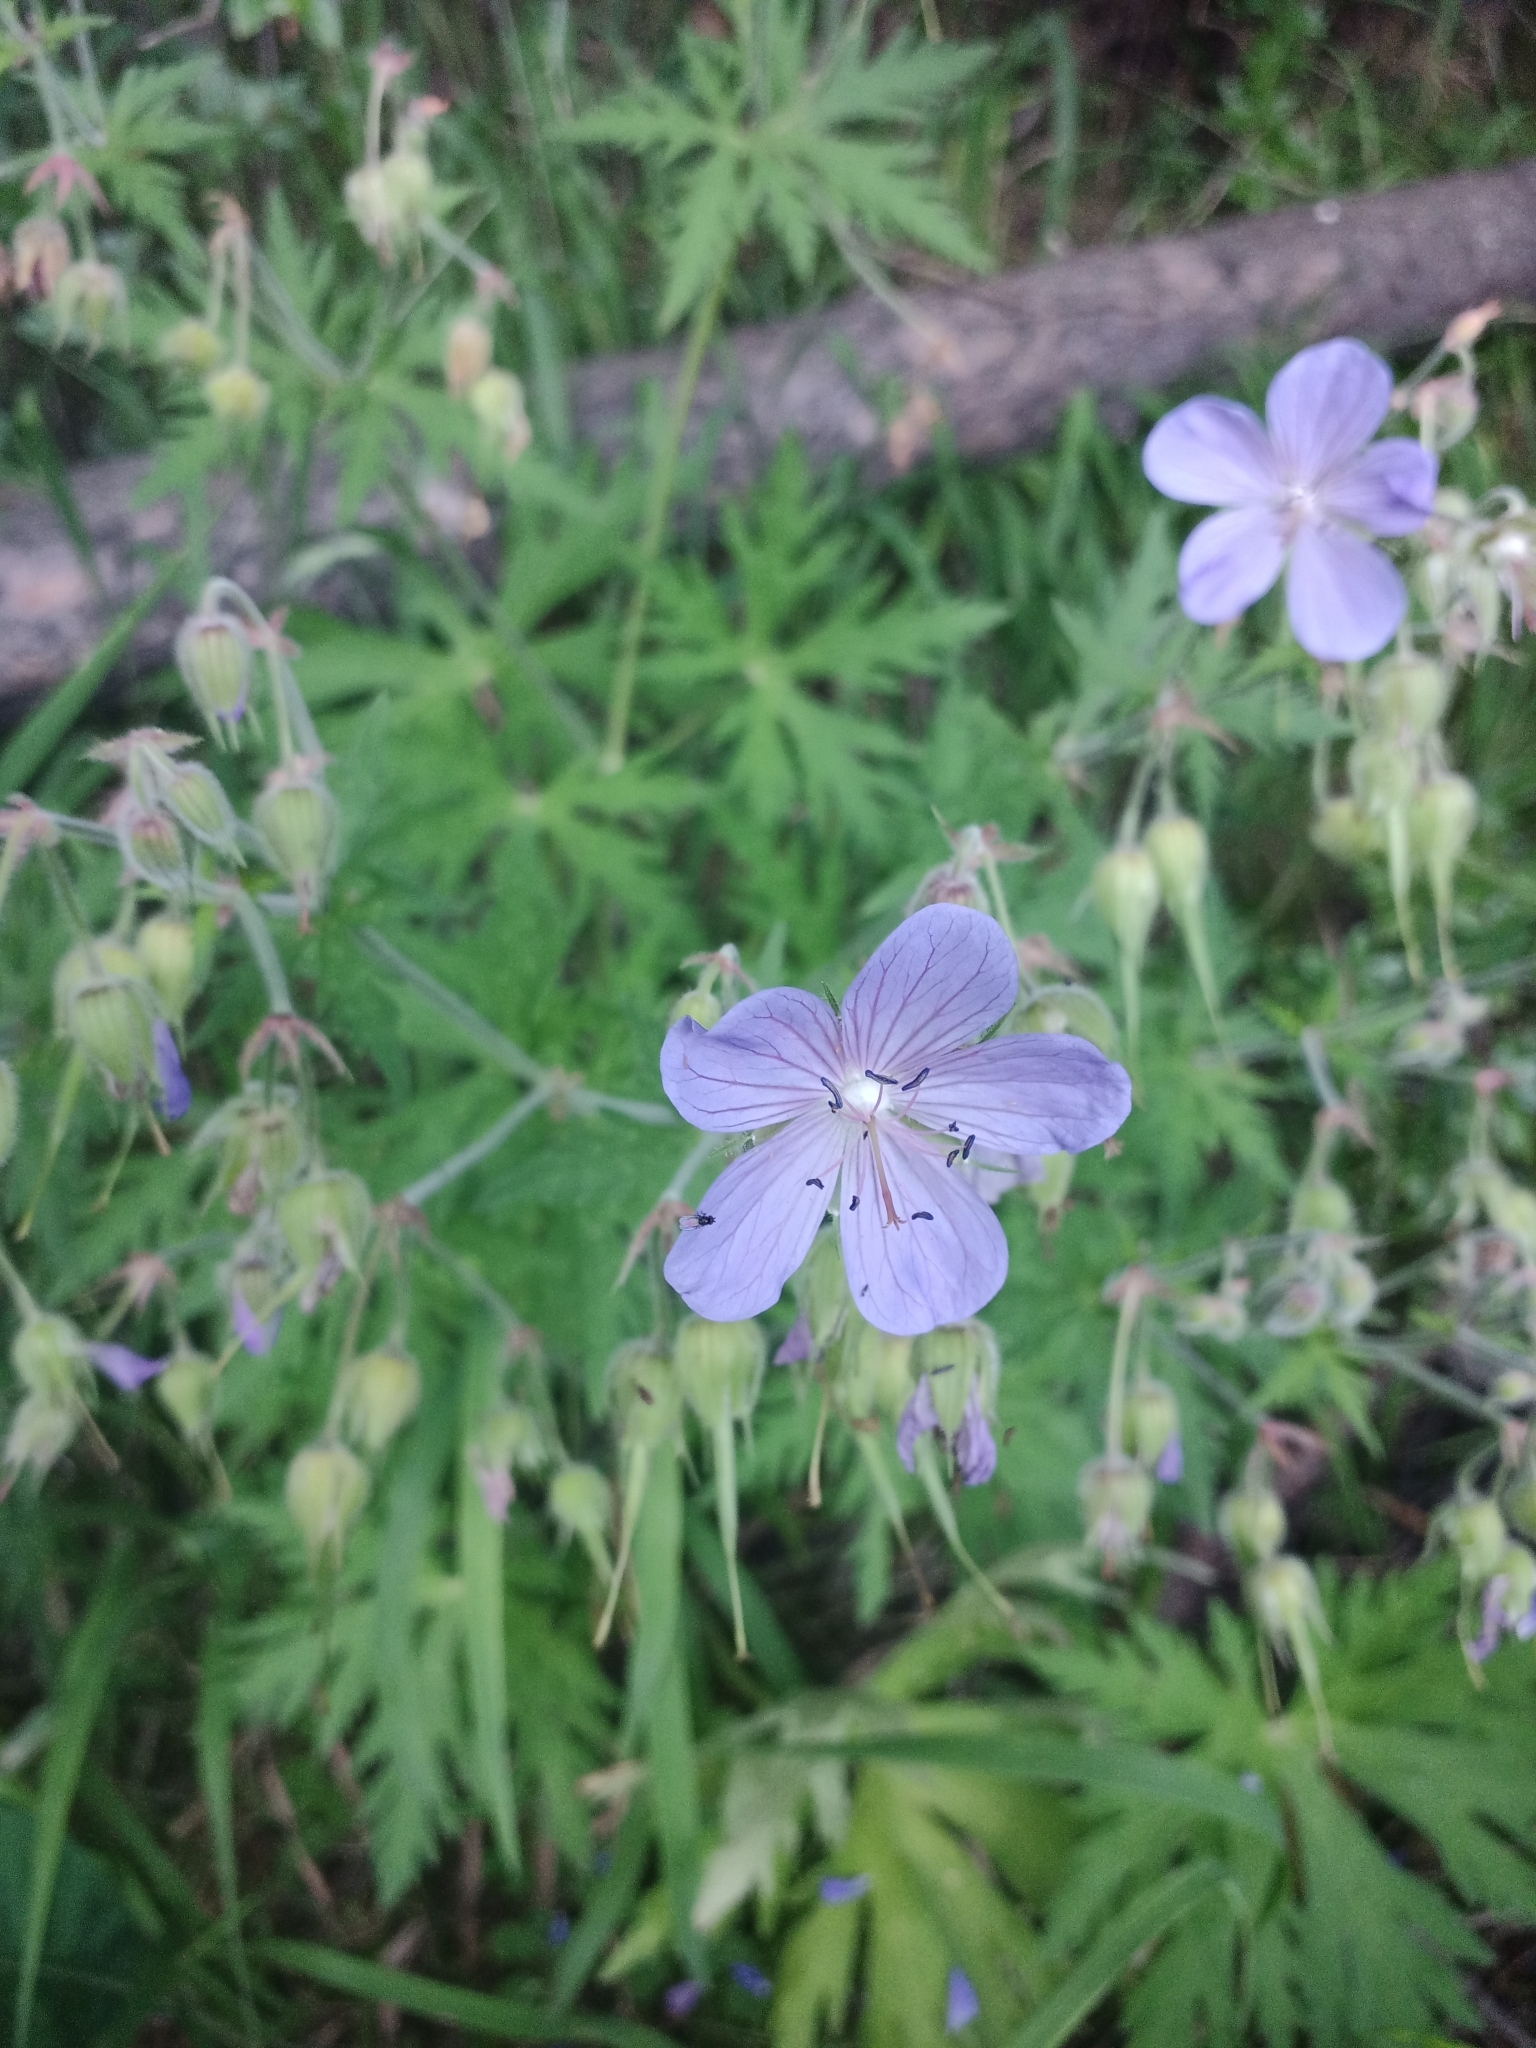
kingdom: Plantae
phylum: Tracheophyta
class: Magnoliopsida
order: Geraniales
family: Geraniaceae
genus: Geranium
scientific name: Geranium pratense
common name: Meadow crane's-bill
